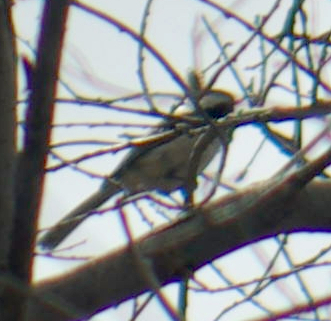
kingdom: Animalia
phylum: Chordata
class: Aves
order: Passeriformes
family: Paridae
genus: Poecile
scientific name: Poecile atricapillus
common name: Black-capped chickadee
